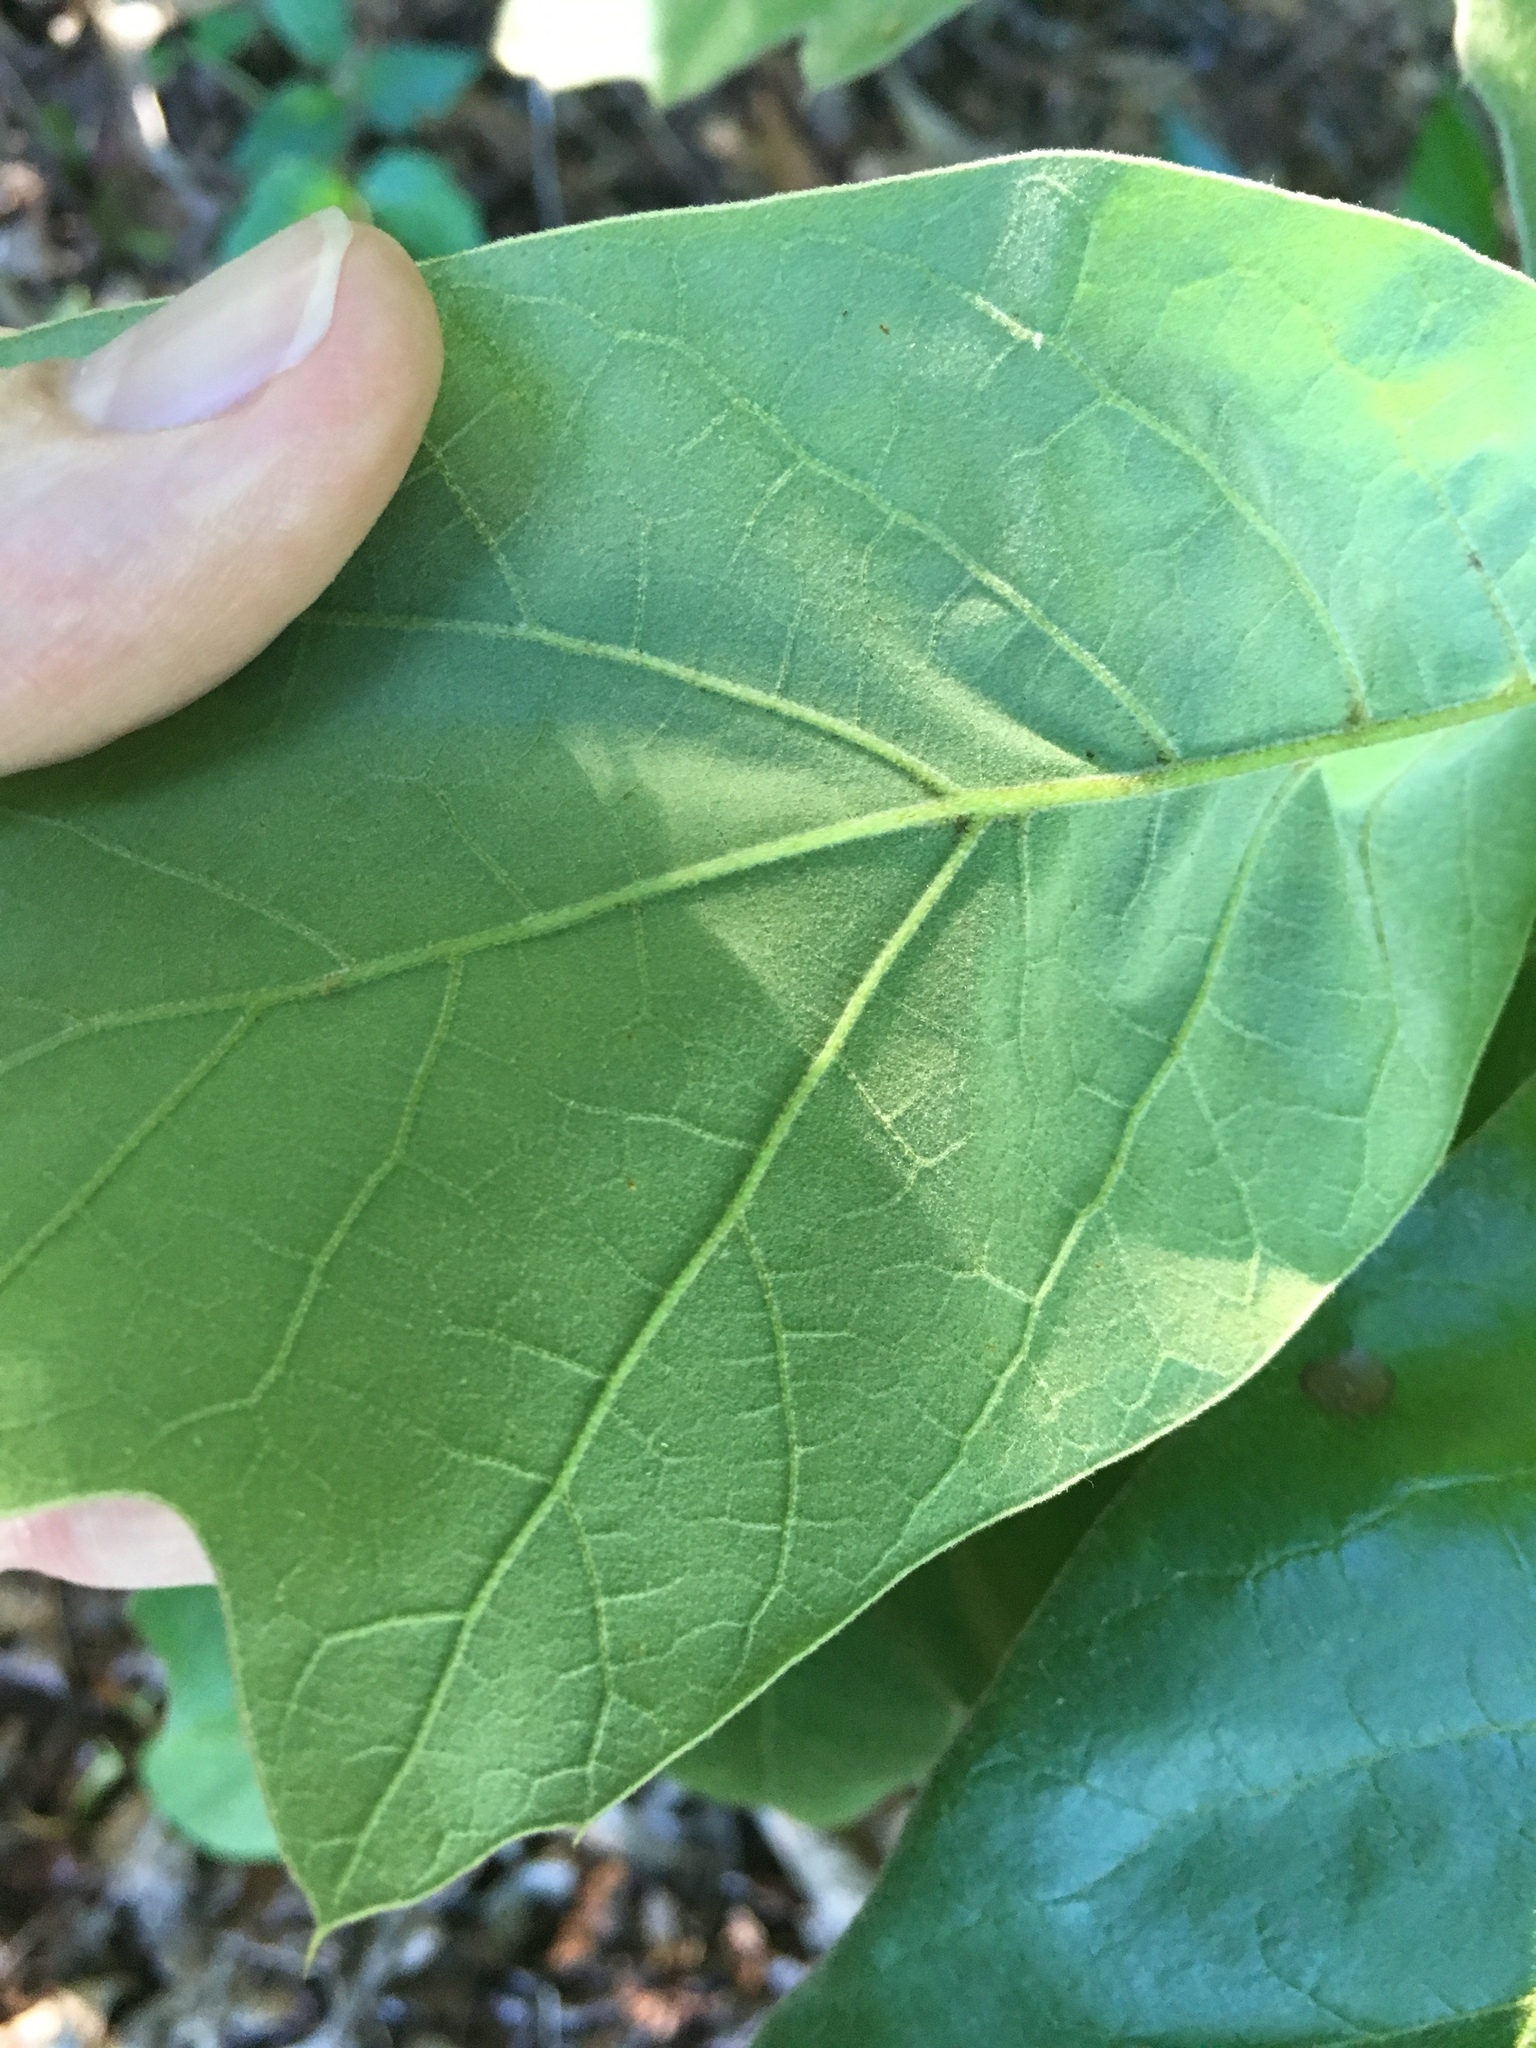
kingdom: Plantae
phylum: Tracheophyta
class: Magnoliopsida
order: Fagales
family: Fagaceae
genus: Quercus
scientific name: Quercus falcata
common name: Southern red oak
